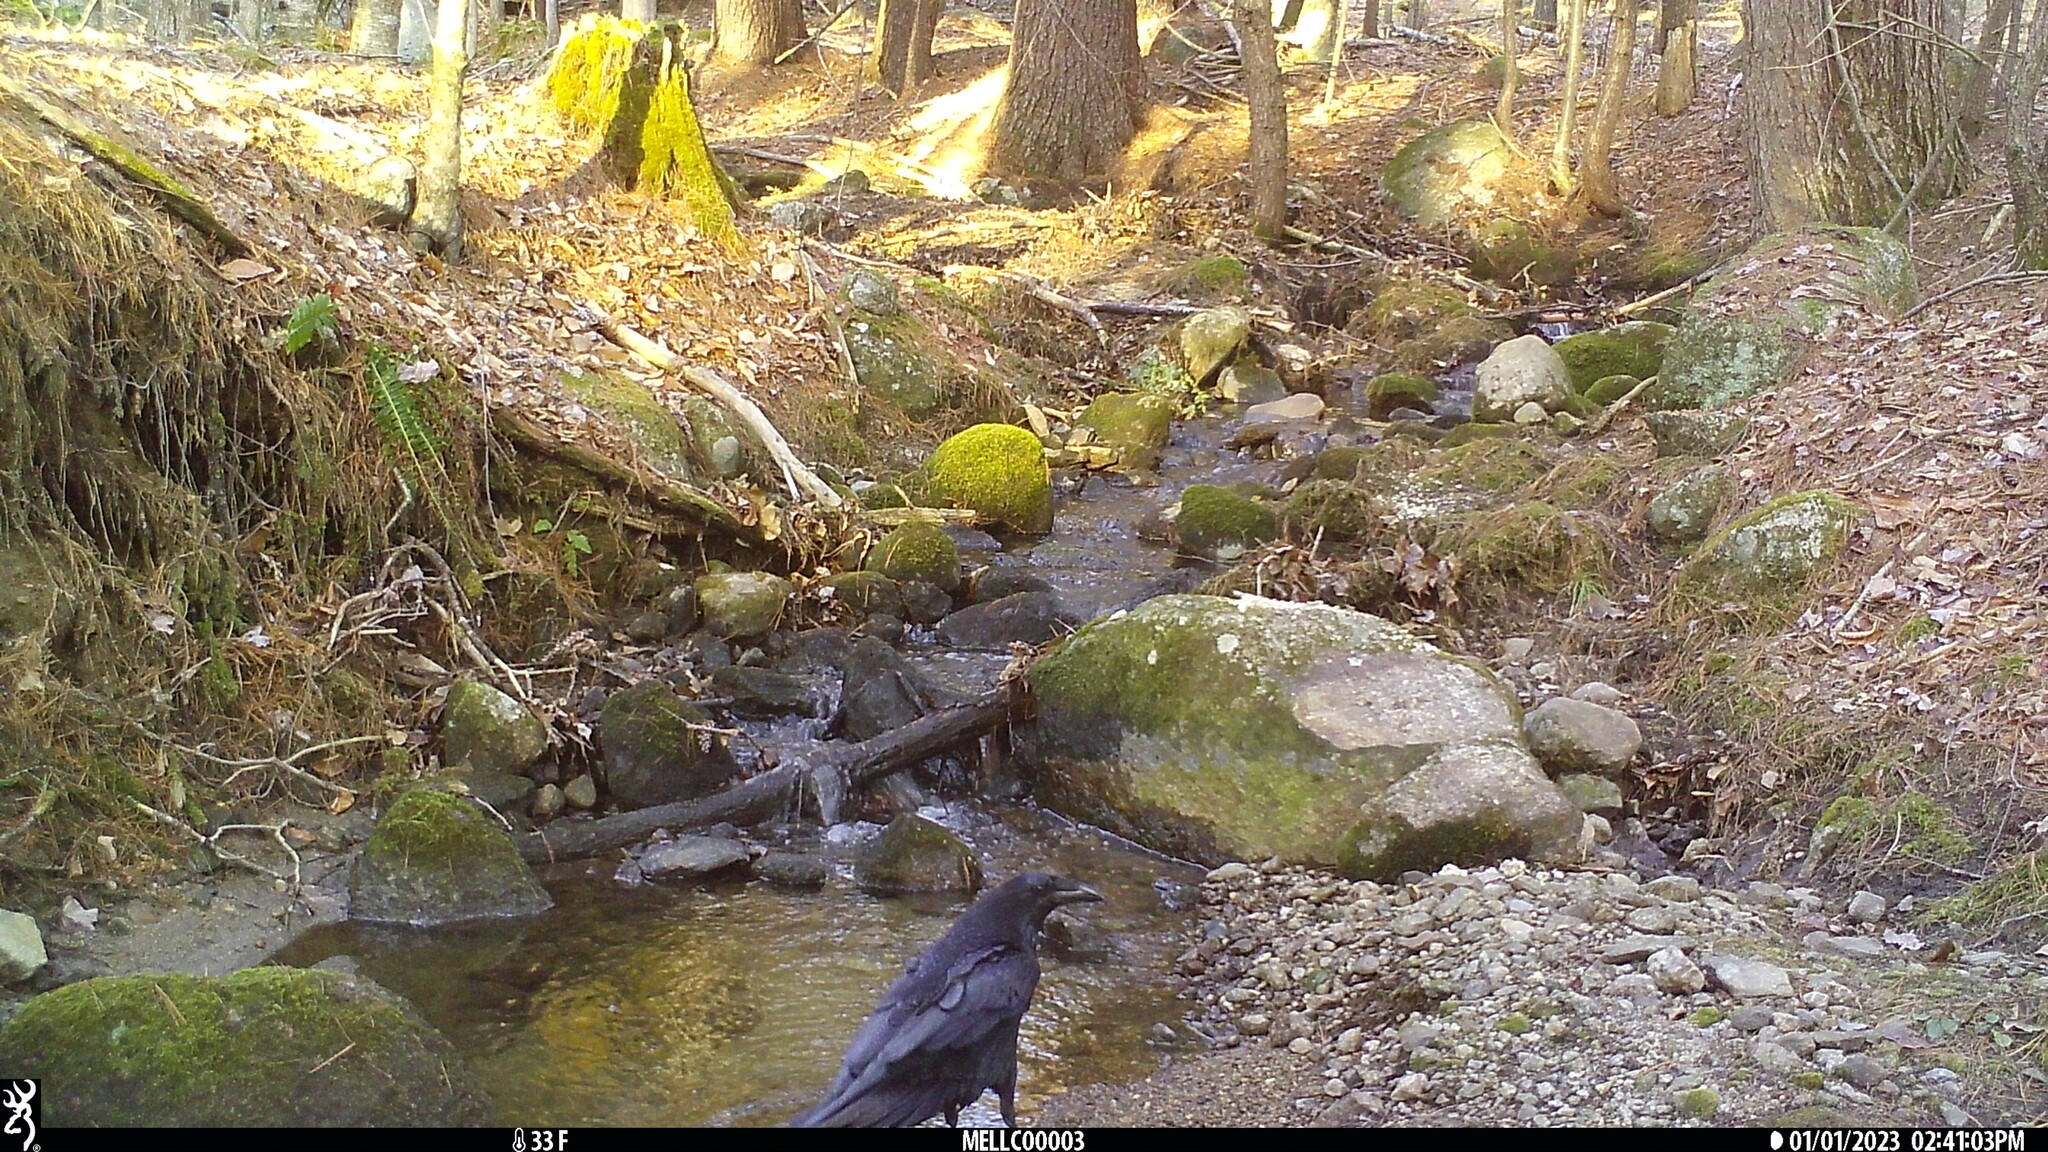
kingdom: Animalia
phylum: Chordata
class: Aves
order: Passeriformes
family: Corvidae
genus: Corvus
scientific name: Corvus corax
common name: Common raven
